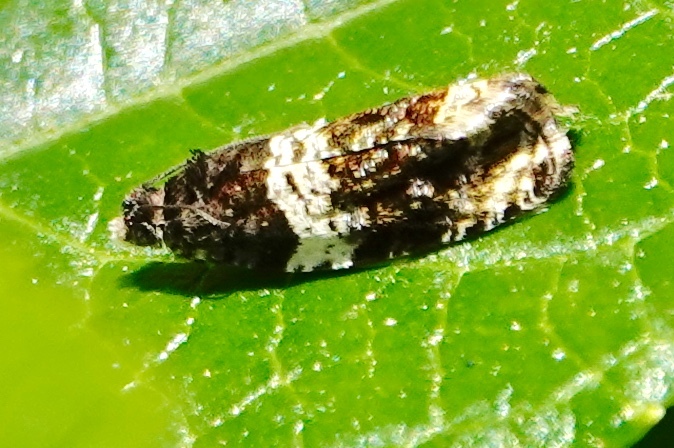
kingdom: Animalia
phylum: Arthropoda
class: Insecta
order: Lepidoptera
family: Tortricidae
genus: Olethreutes
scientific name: Olethreutes fasciatana
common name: Banded olethreutes moth
